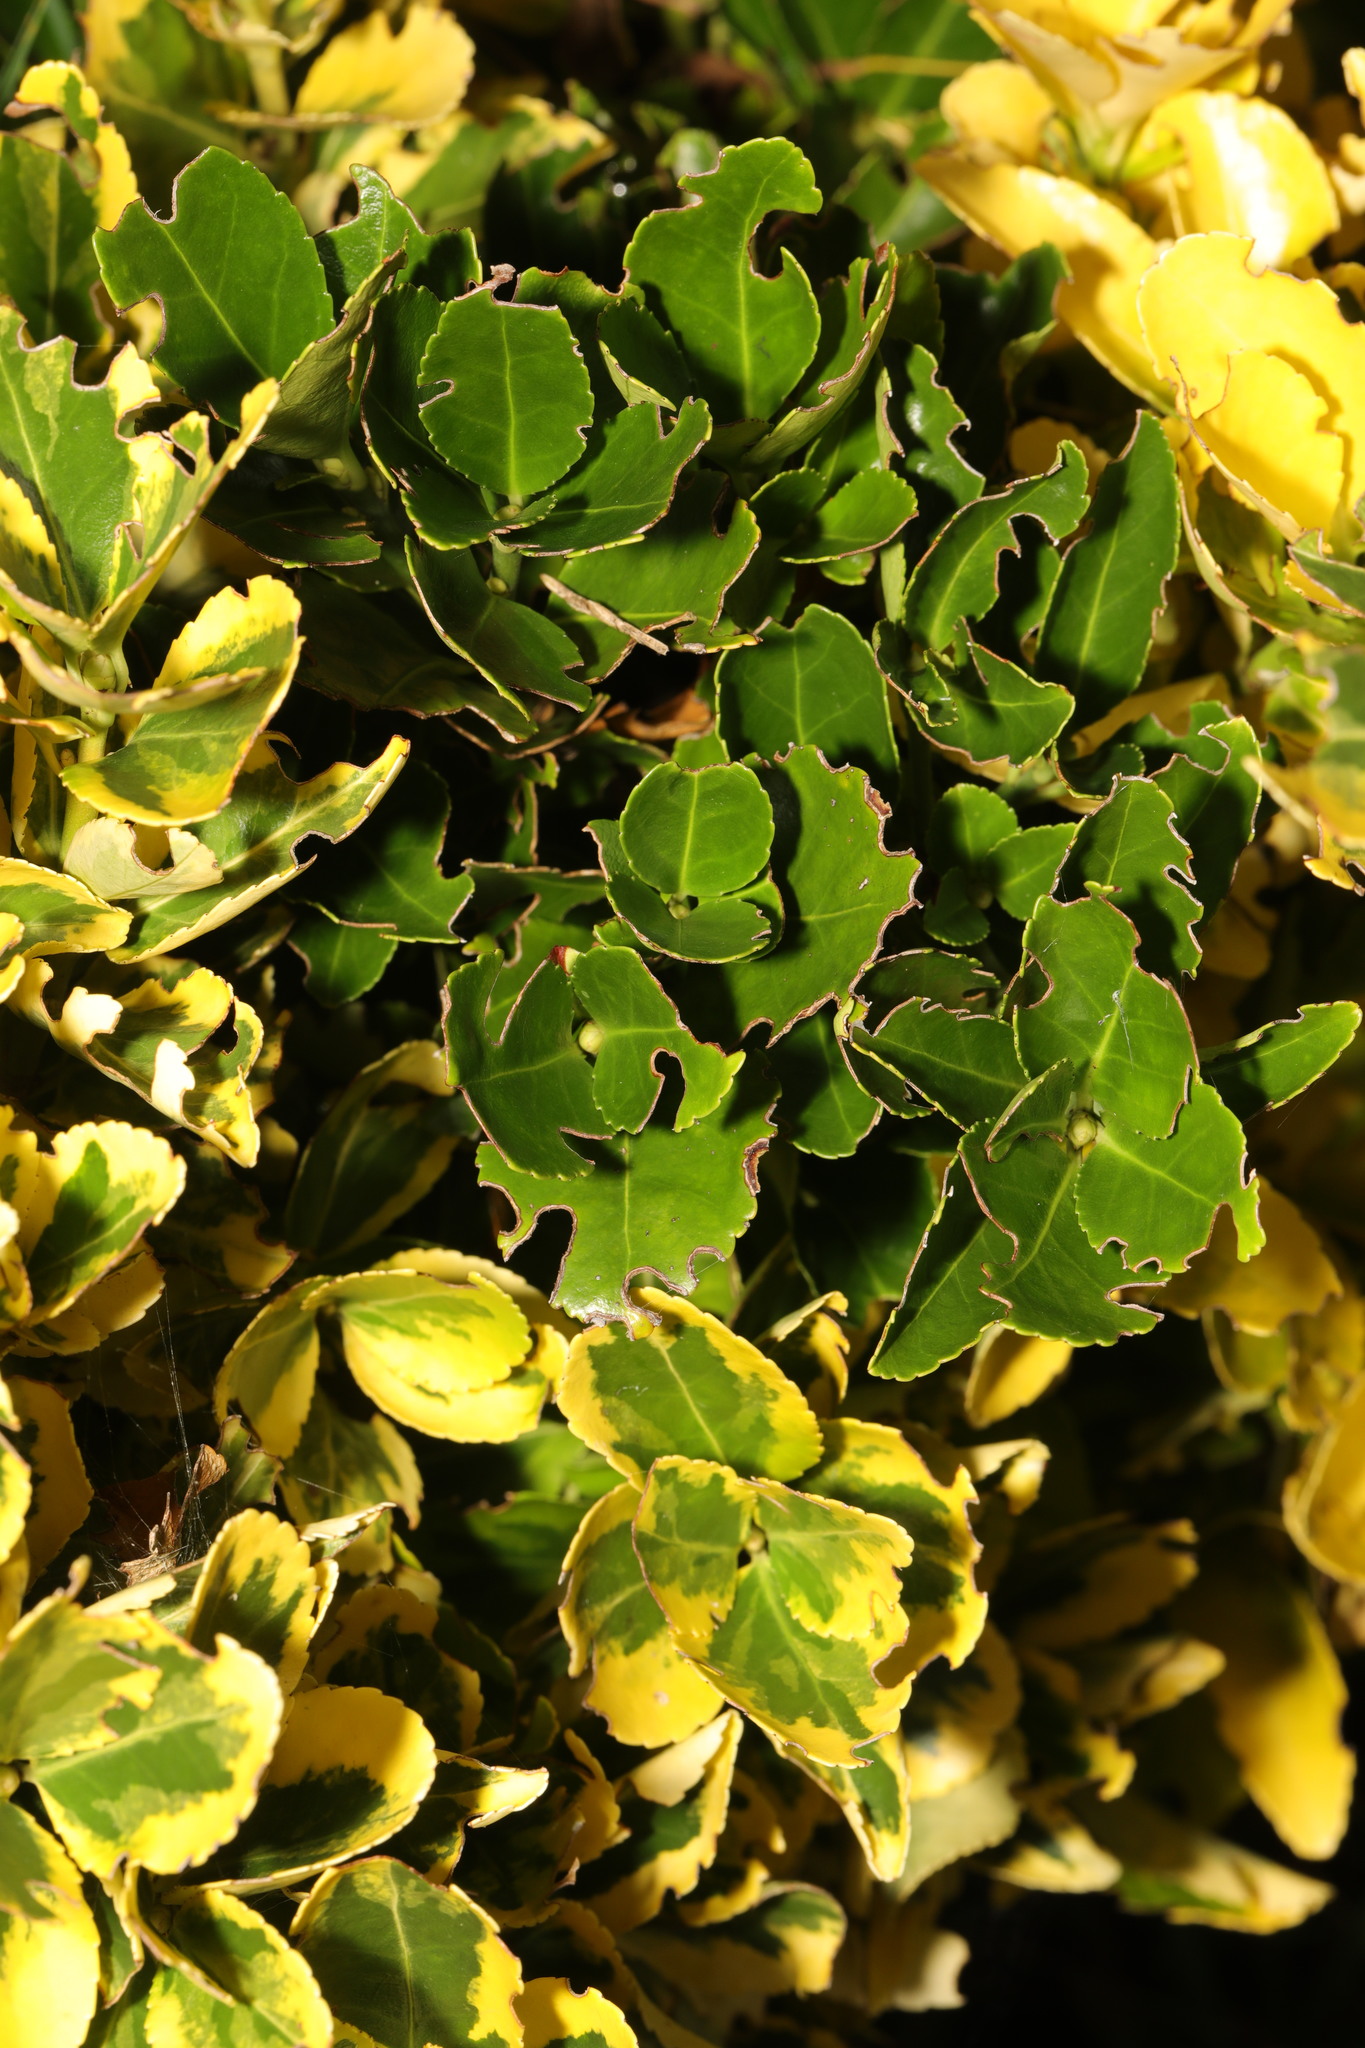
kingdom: Plantae
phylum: Tracheophyta
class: Magnoliopsida
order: Celastrales
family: Celastraceae
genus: Euonymus
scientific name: Euonymus japonicus
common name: Japanese spindletree
